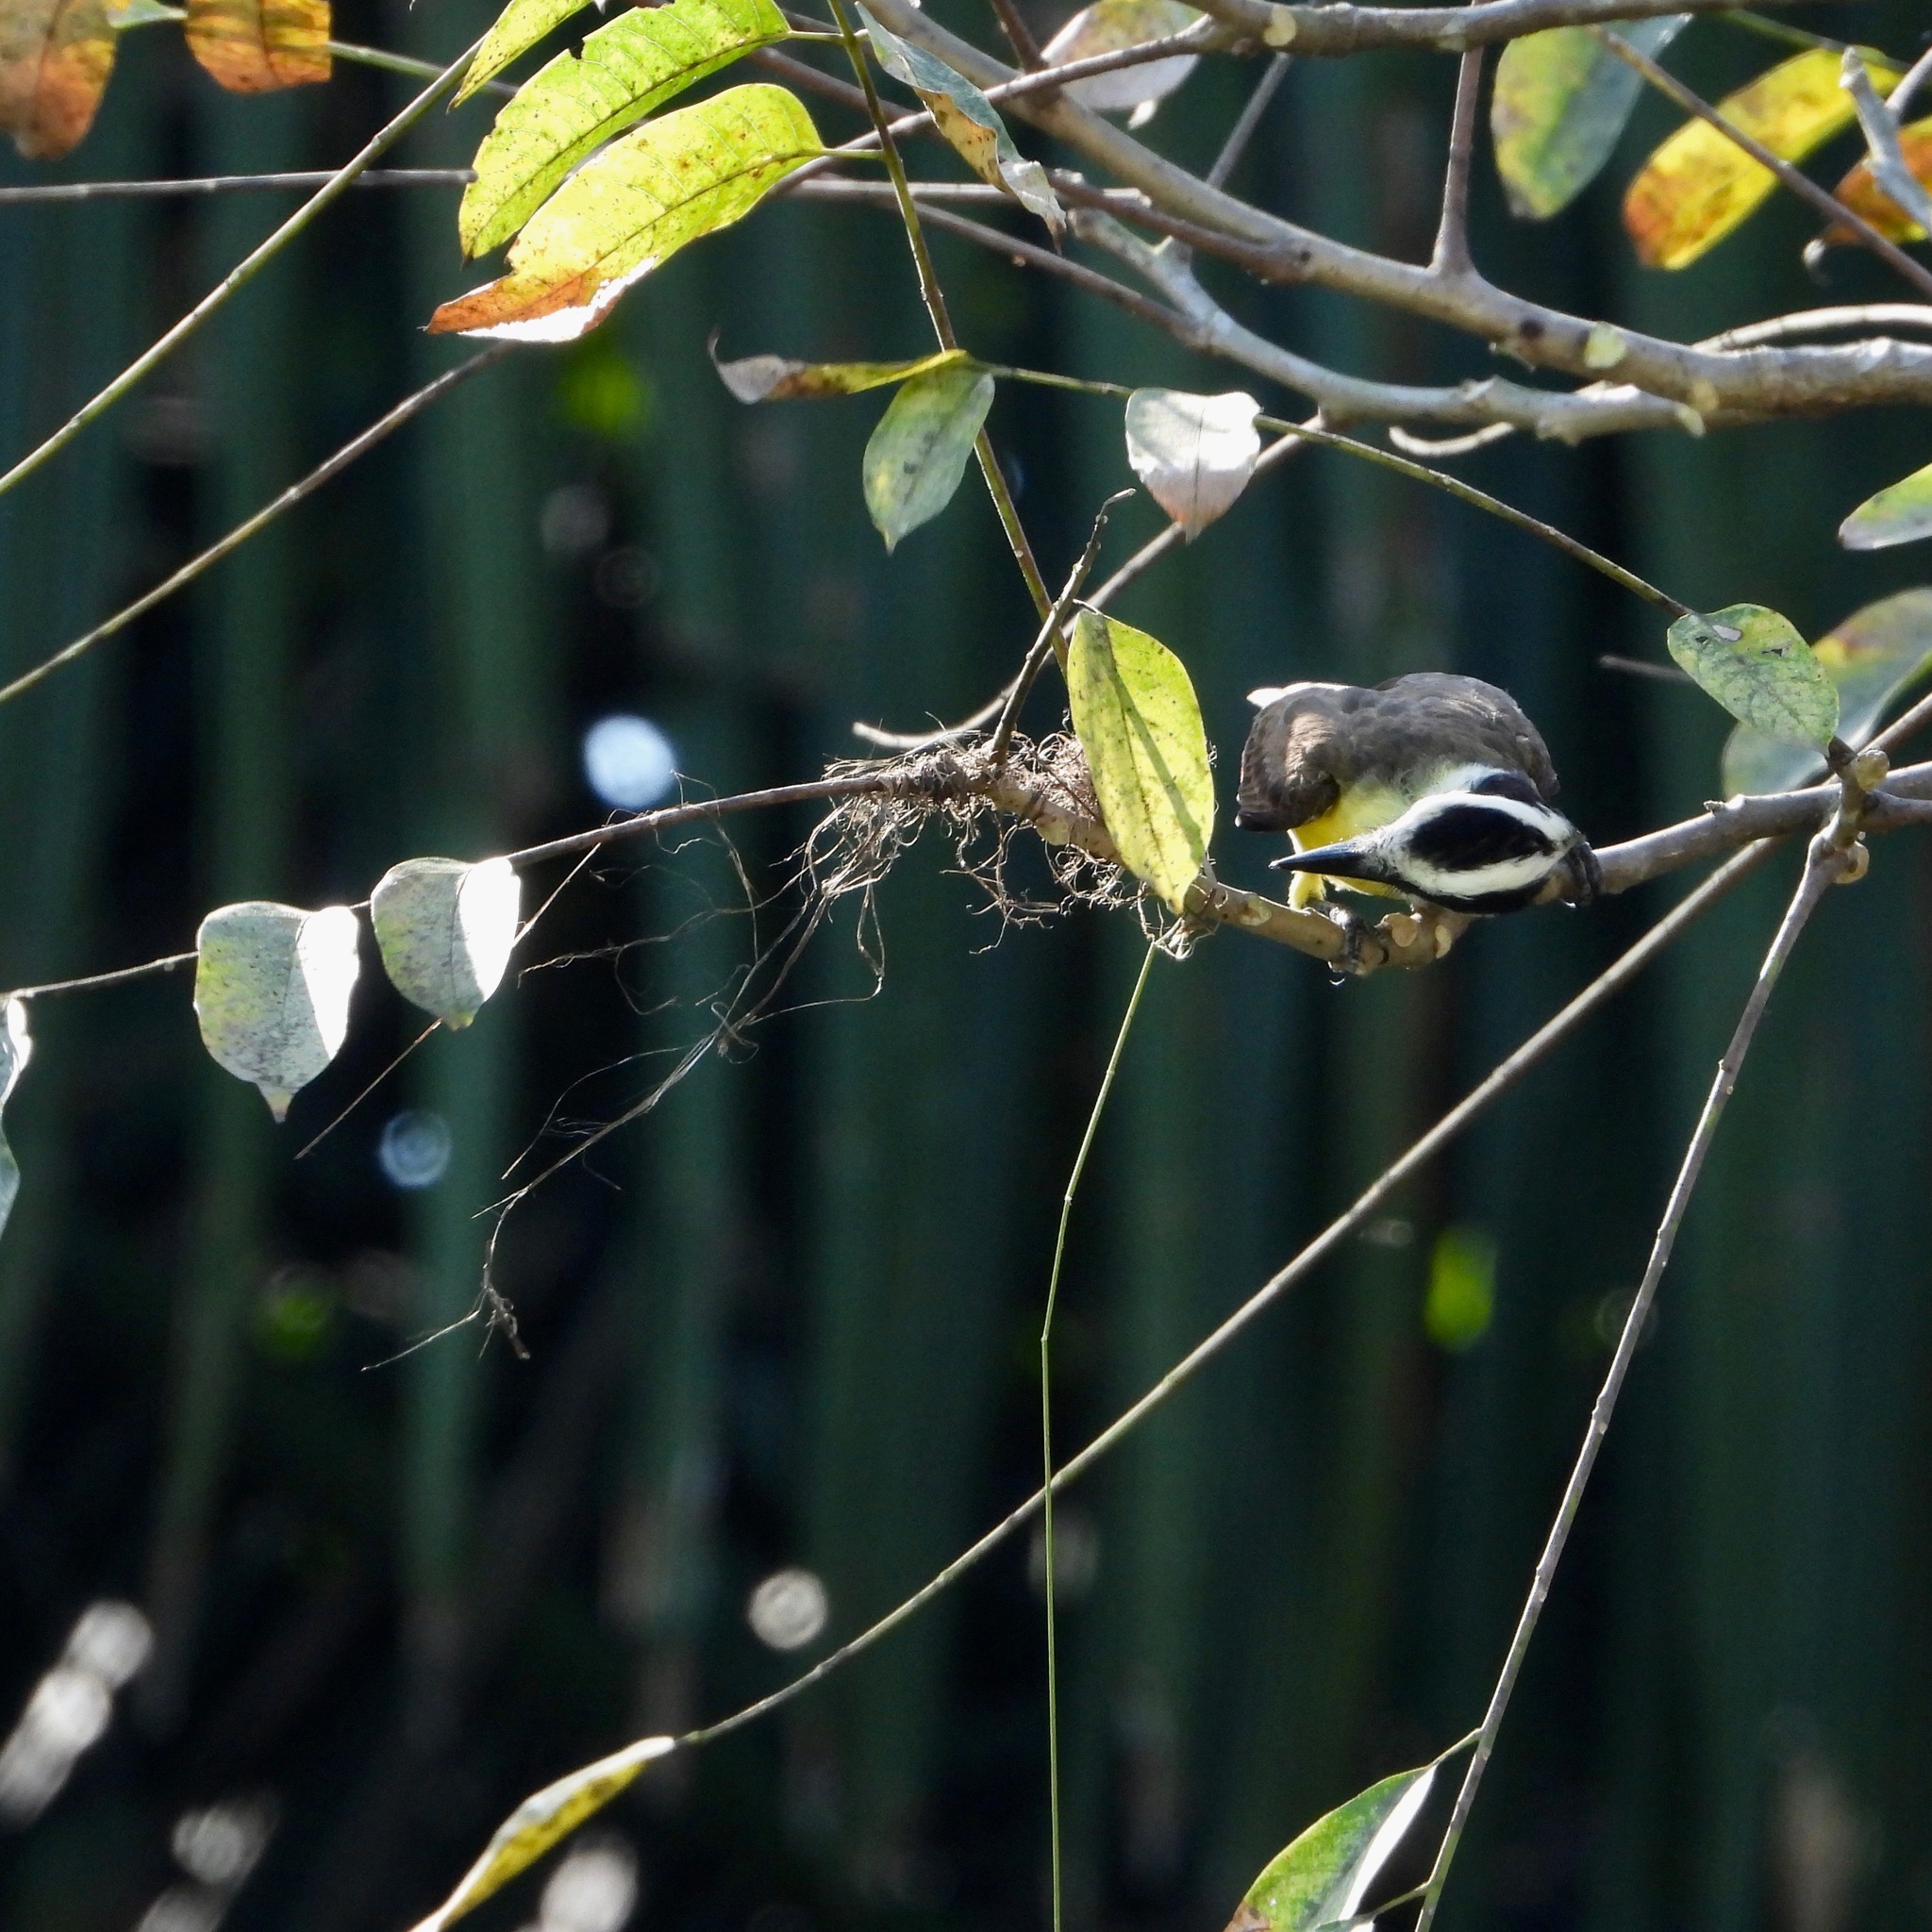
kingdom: Animalia
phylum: Chordata
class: Aves
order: Passeriformes
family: Tyrannidae
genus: Pitangus
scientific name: Pitangus sulphuratus
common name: Great kiskadee
